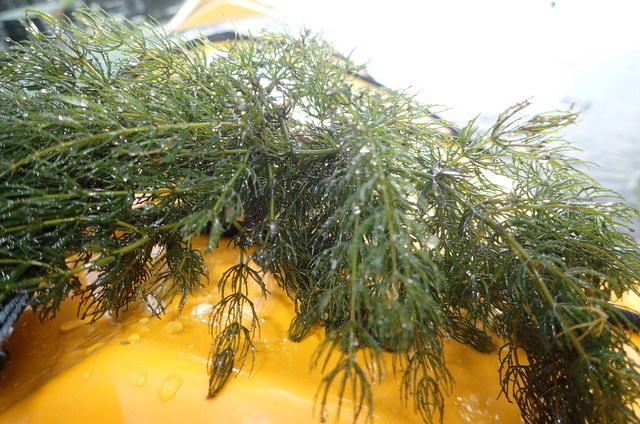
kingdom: Plantae
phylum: Tracheophyta
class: Magnoliopsida
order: Ceratophyllales
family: Ceratophyllaceae
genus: Ceratophyllum
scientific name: Ceratophyllum demersum
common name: Rigid hornwort
